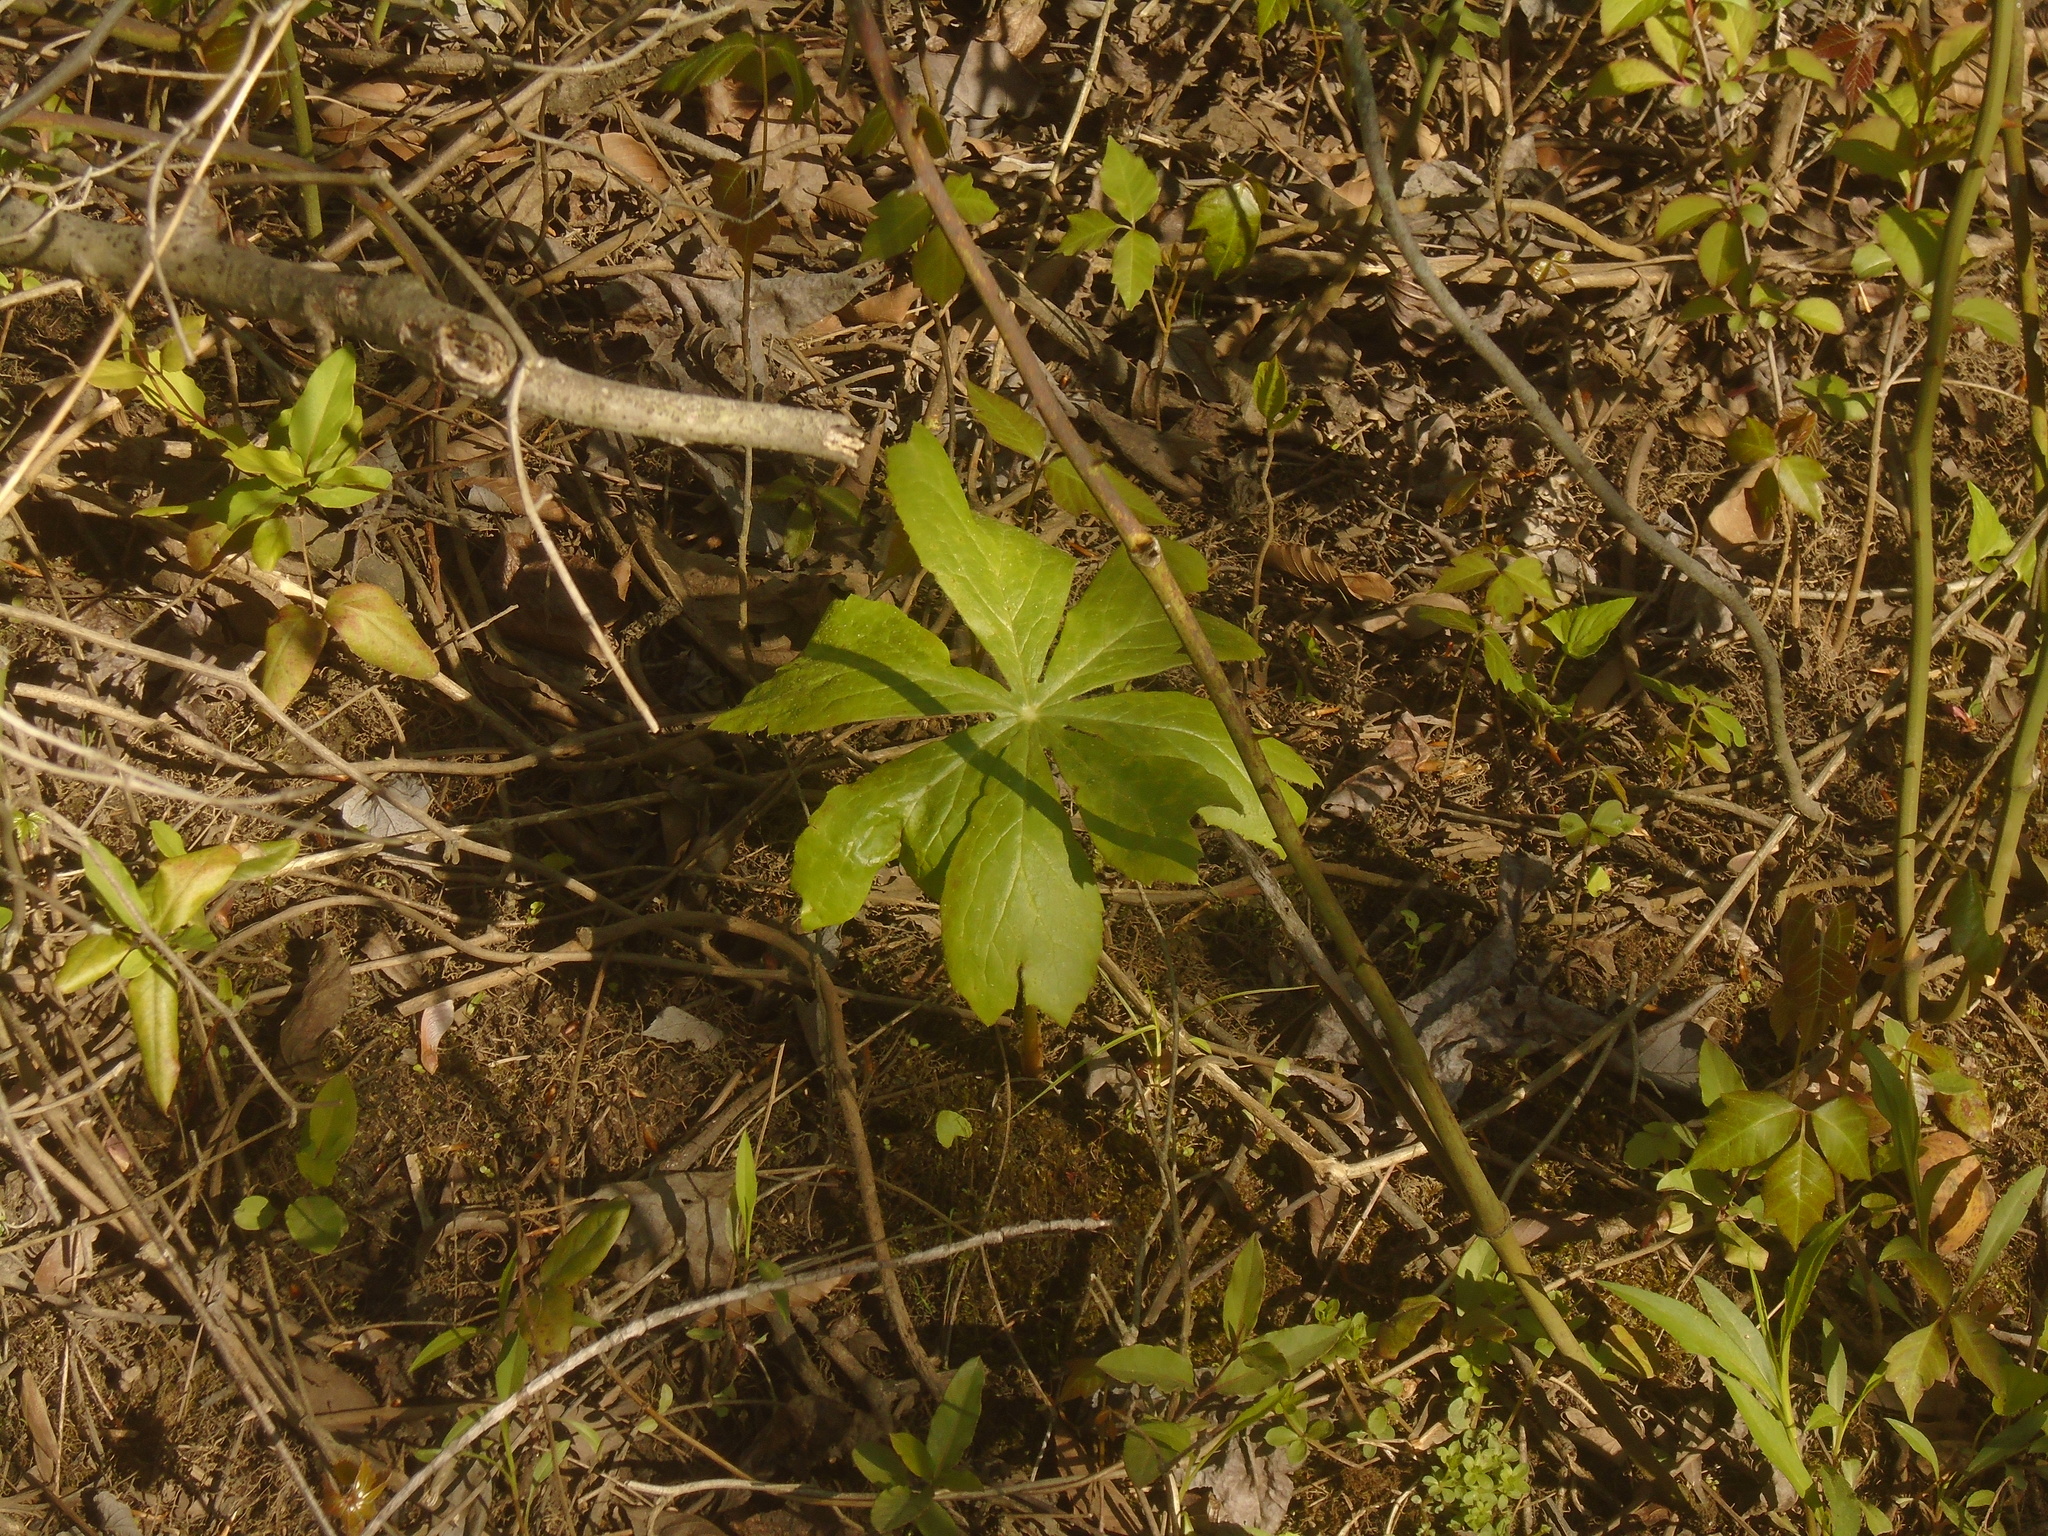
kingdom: Plantae
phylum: Tracheophyta
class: Magnoliopsida
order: Ranunculales
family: Berberidaceae
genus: Podophyllum
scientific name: Podophyllum peltatum
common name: Wild mandrake
